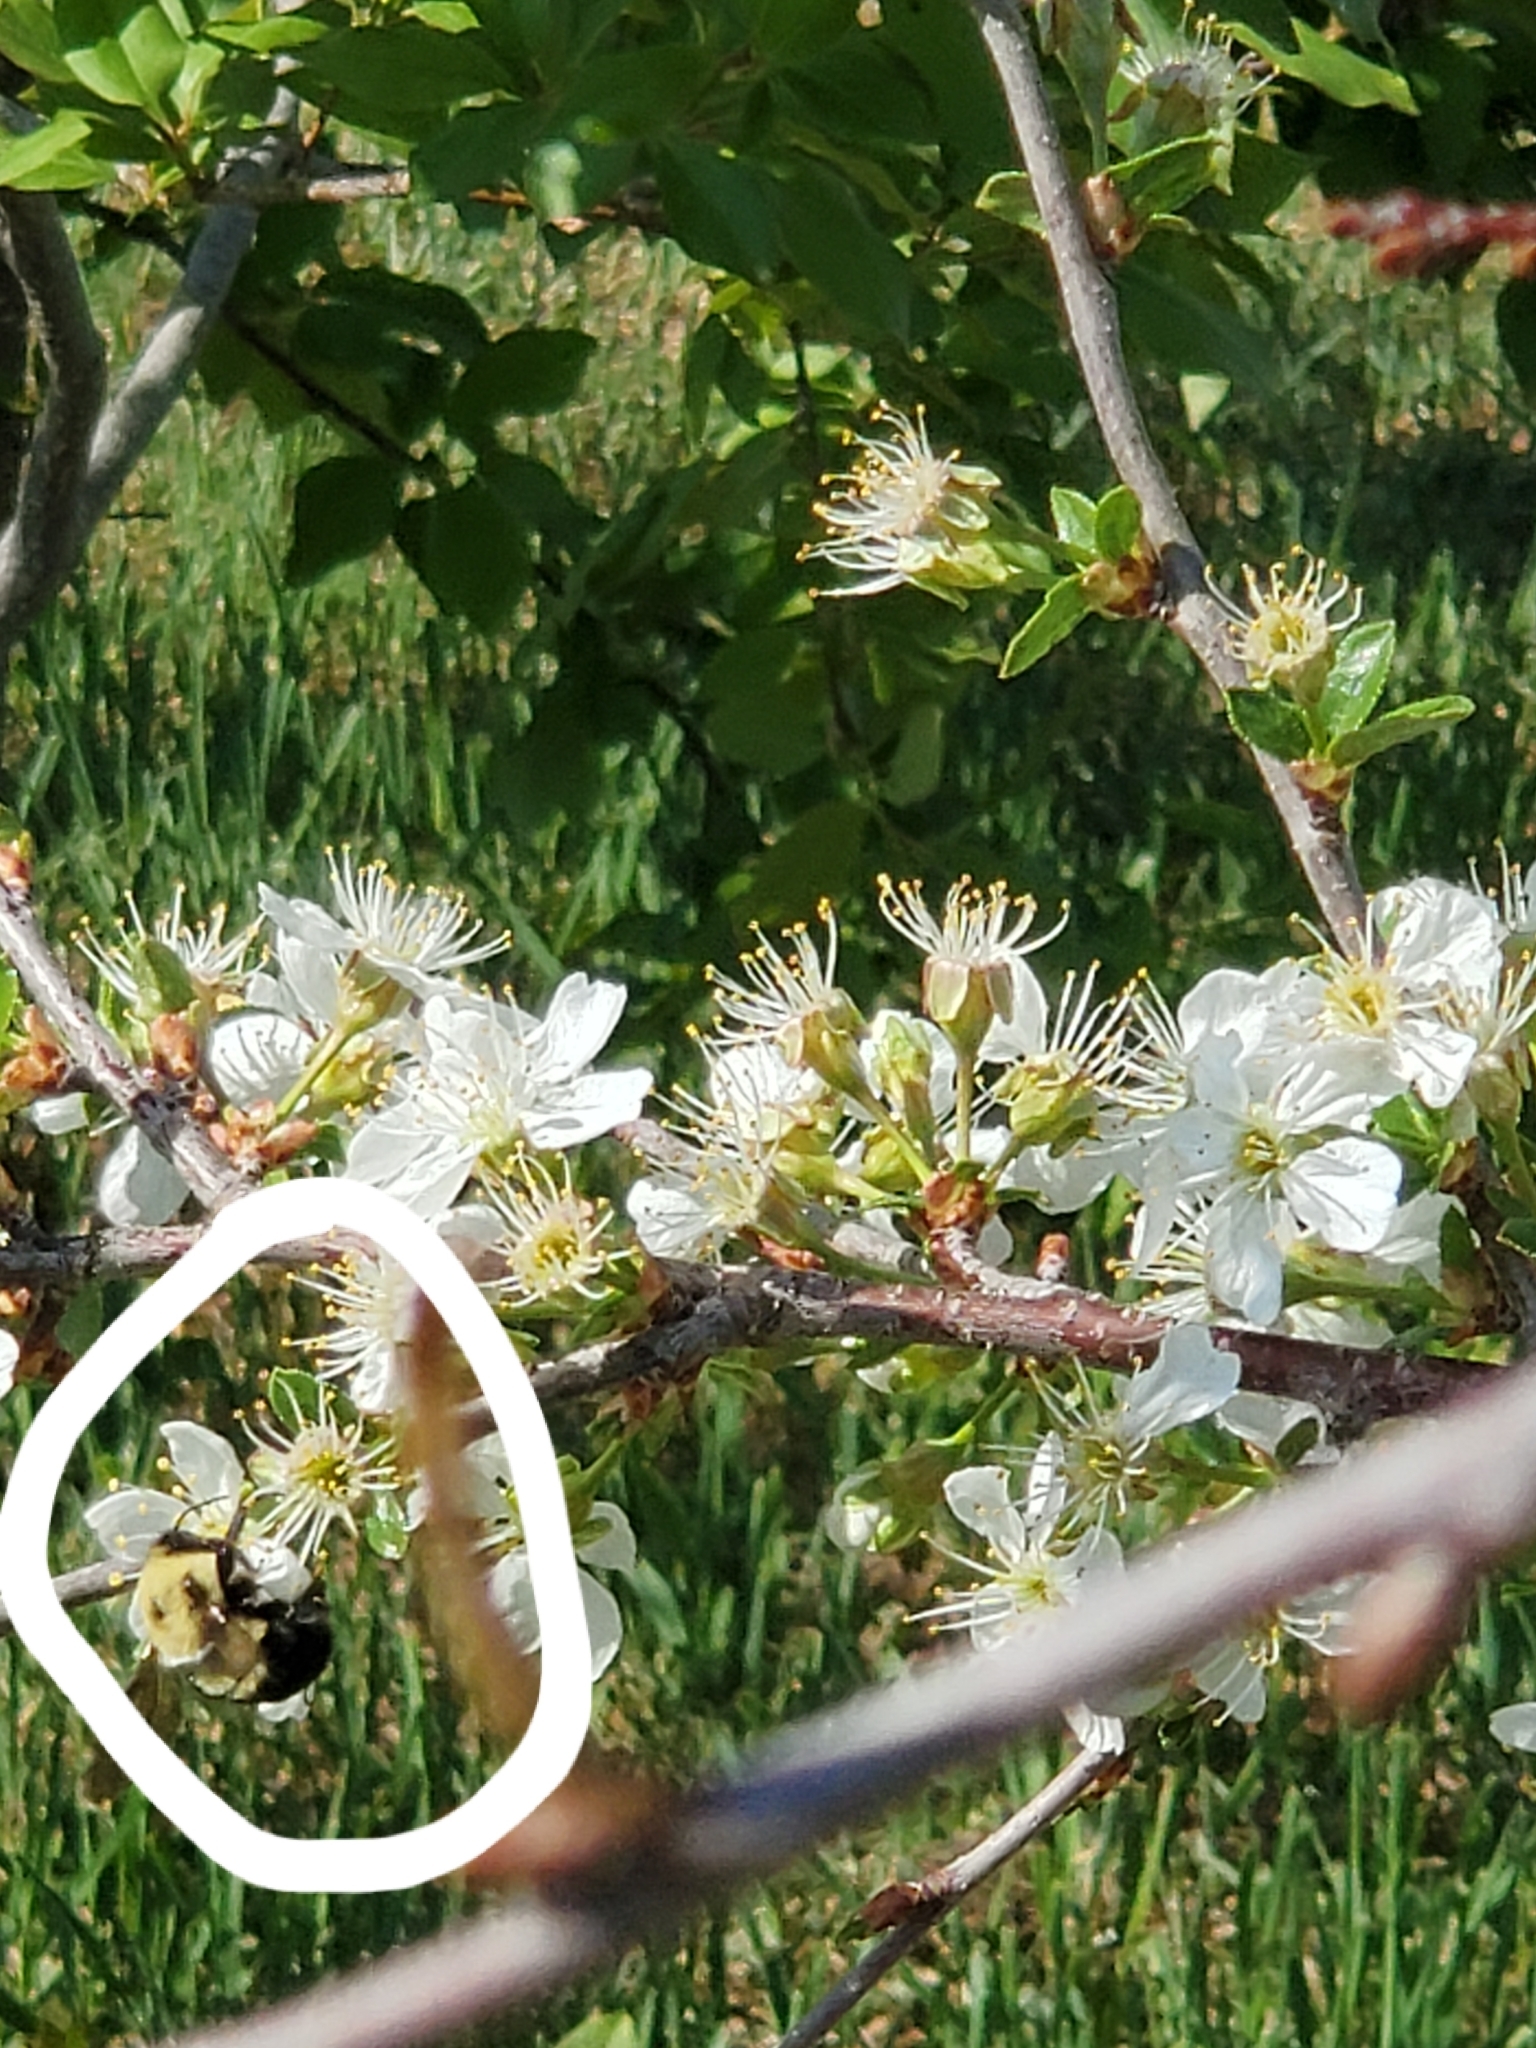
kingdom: Animalia
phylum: Arthropoda
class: Insecta
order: Hymenoptera
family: Apidae
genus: Bombus
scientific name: Bombus bimaculatus
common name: Two-spotted bumble bee
